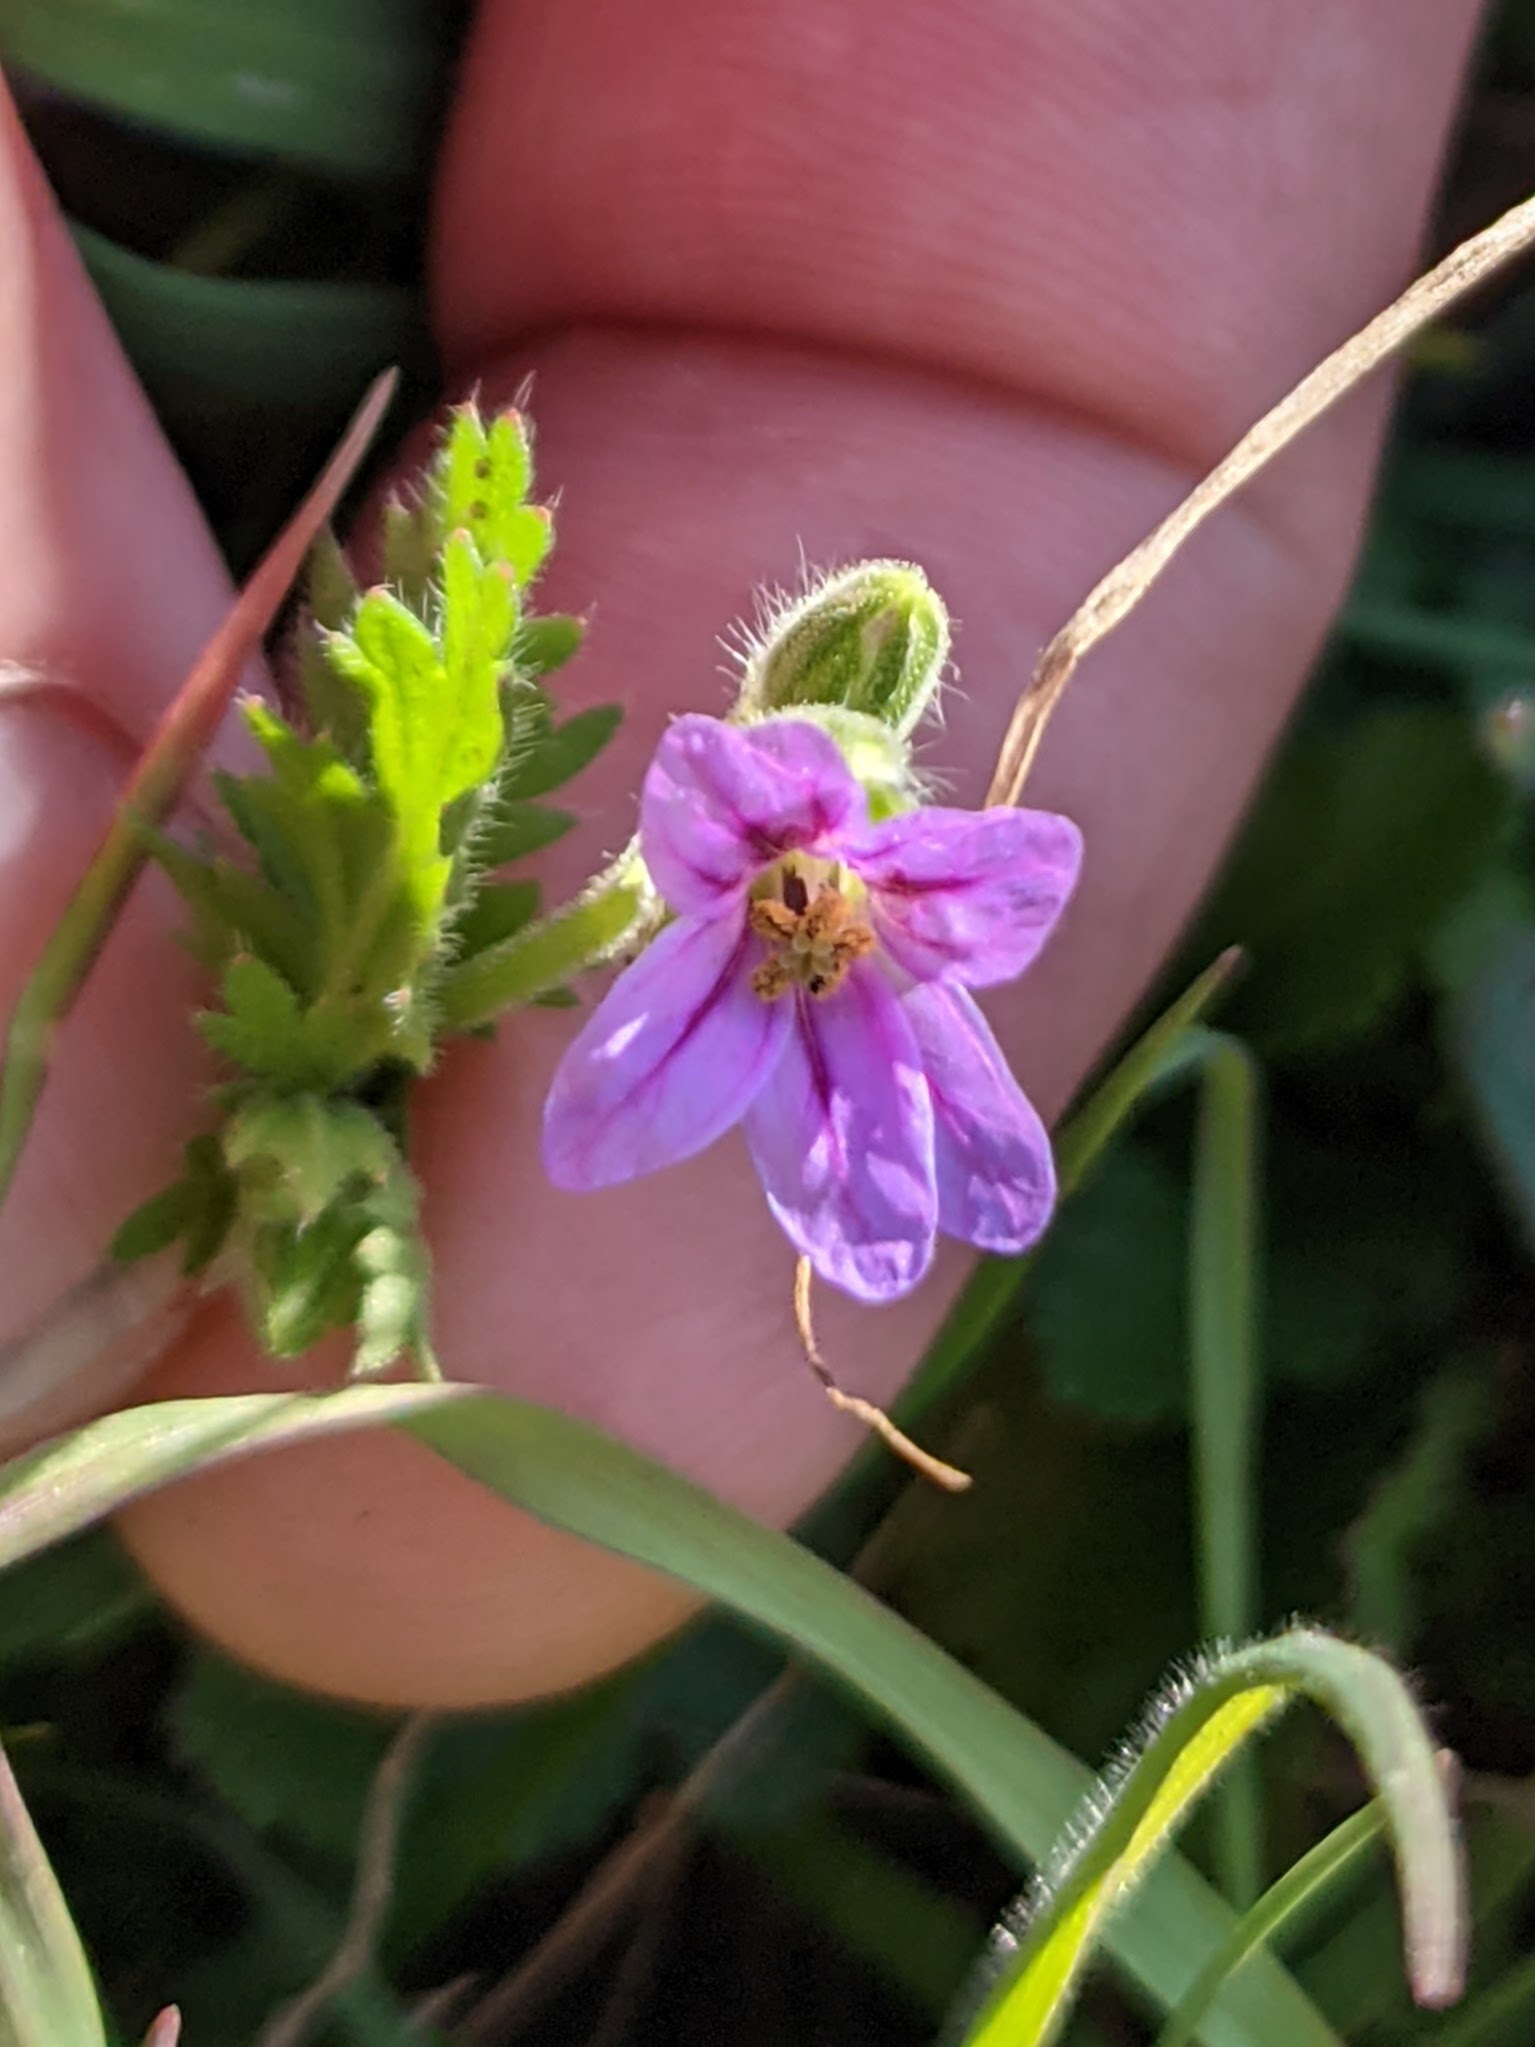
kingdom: Plantae
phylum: Tracheophyta
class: Magnoliopsida
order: Geraniales
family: Geraniaceae
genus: Erodium
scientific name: Erodium brachycarpum
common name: Hairy-pitted stork's-bill
